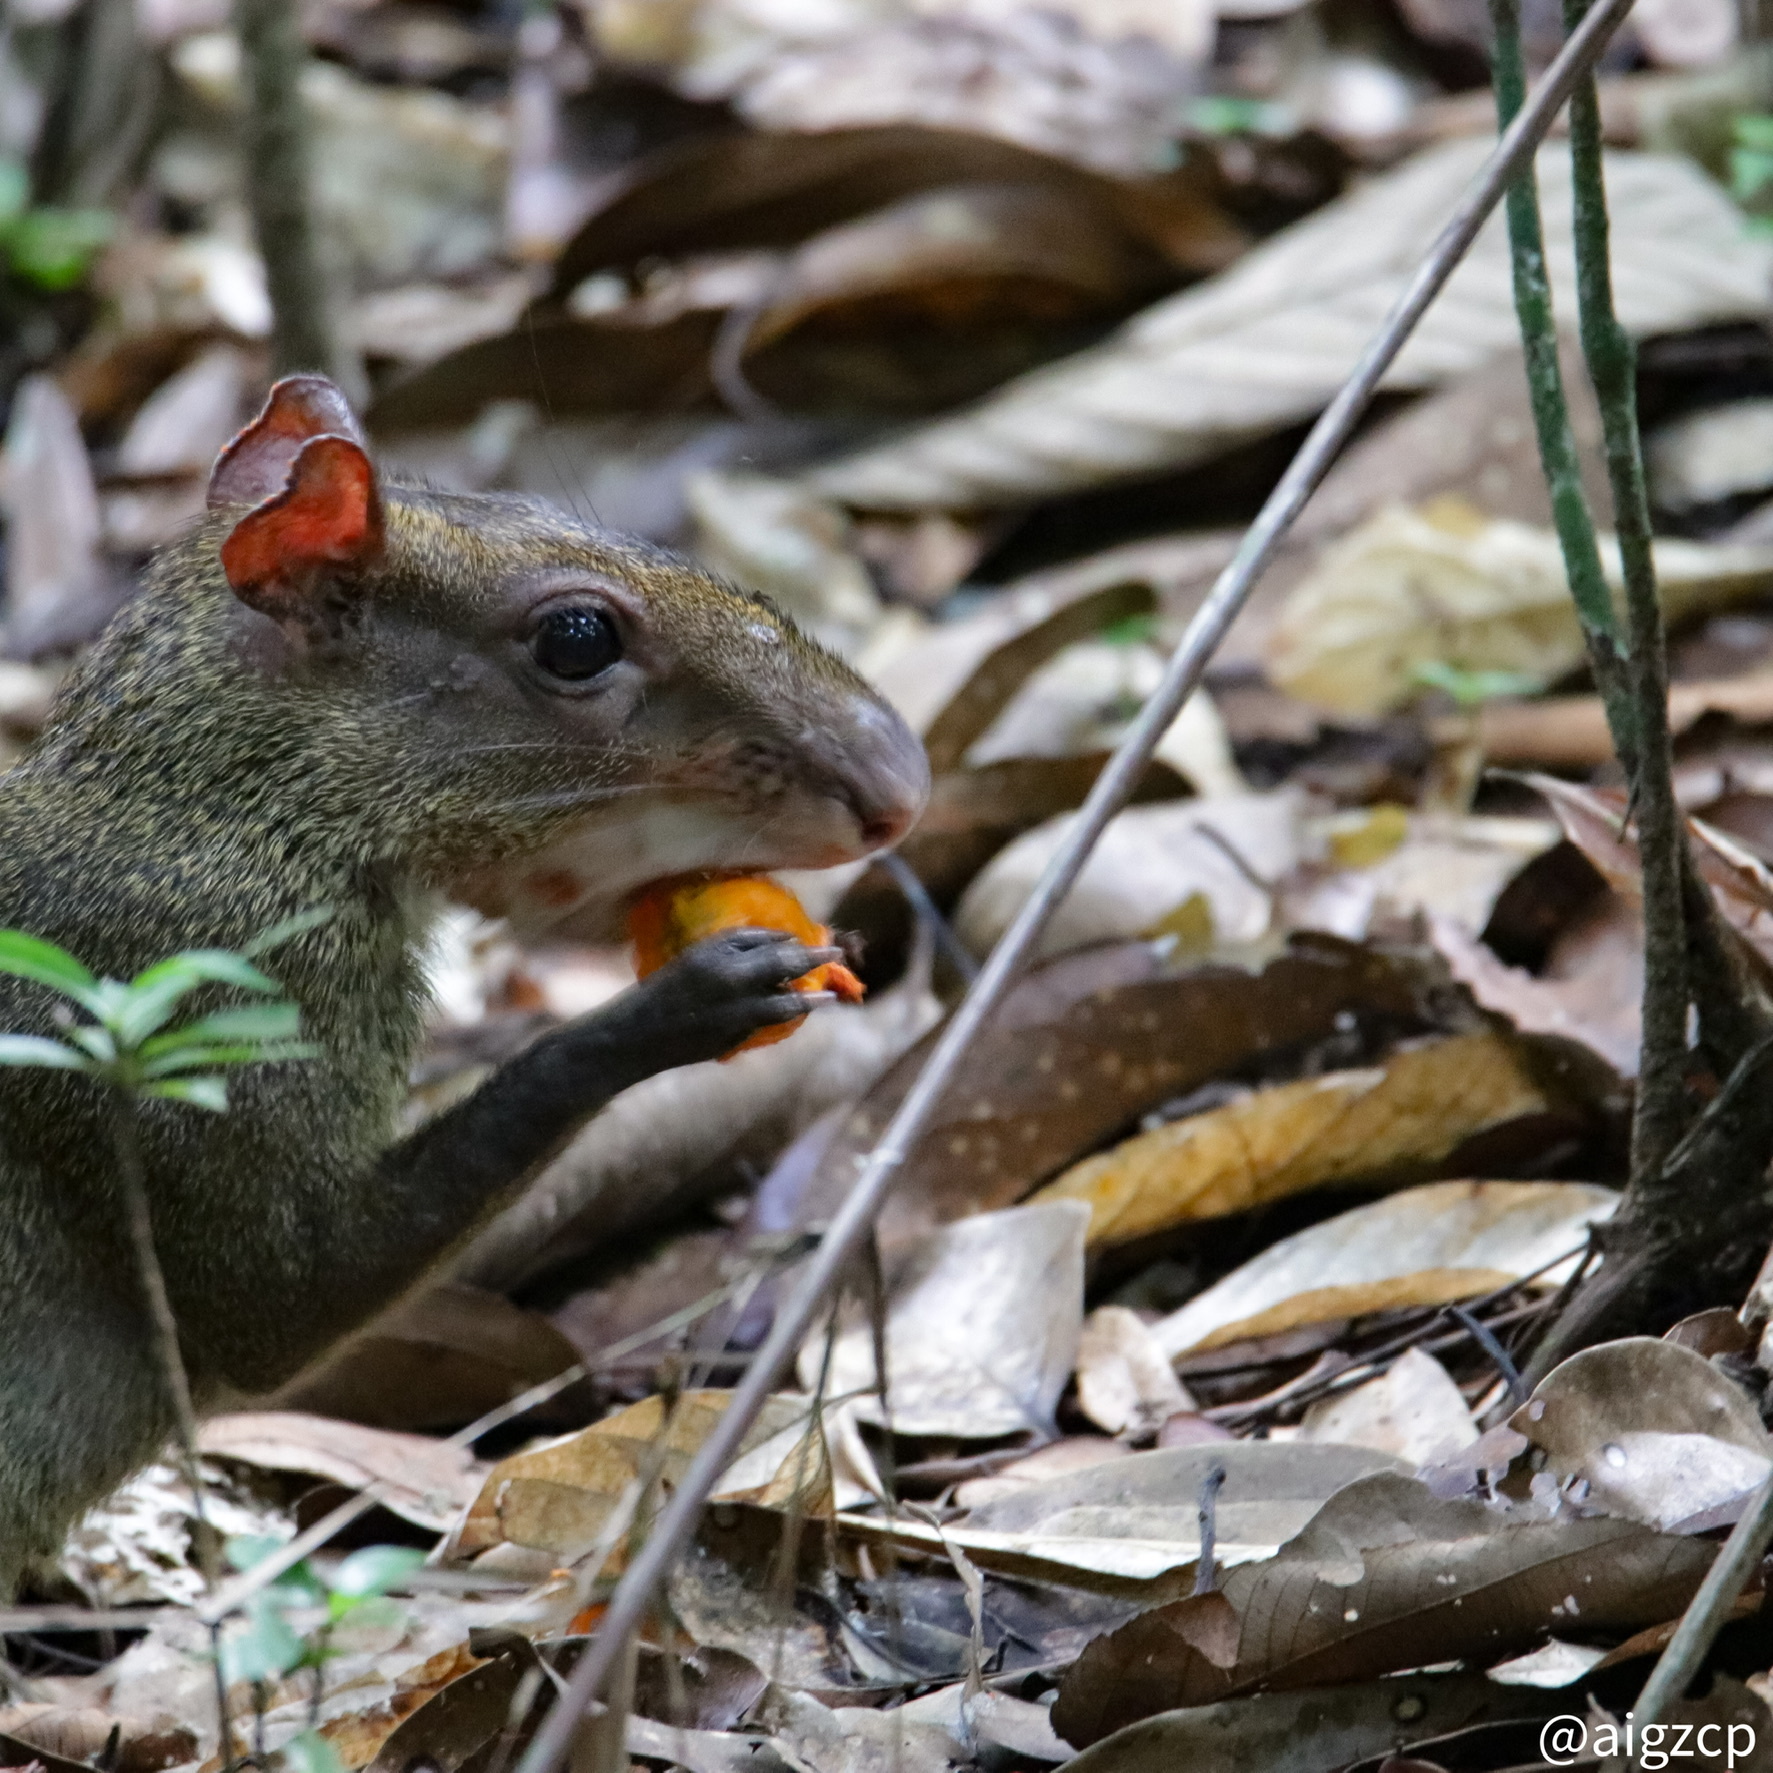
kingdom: Animalia
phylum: Chordata
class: Mammalia
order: Rodentia
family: Dasyproctidae
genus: Dasyprocta
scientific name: Dasyprocta punctata
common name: Central american agouti
